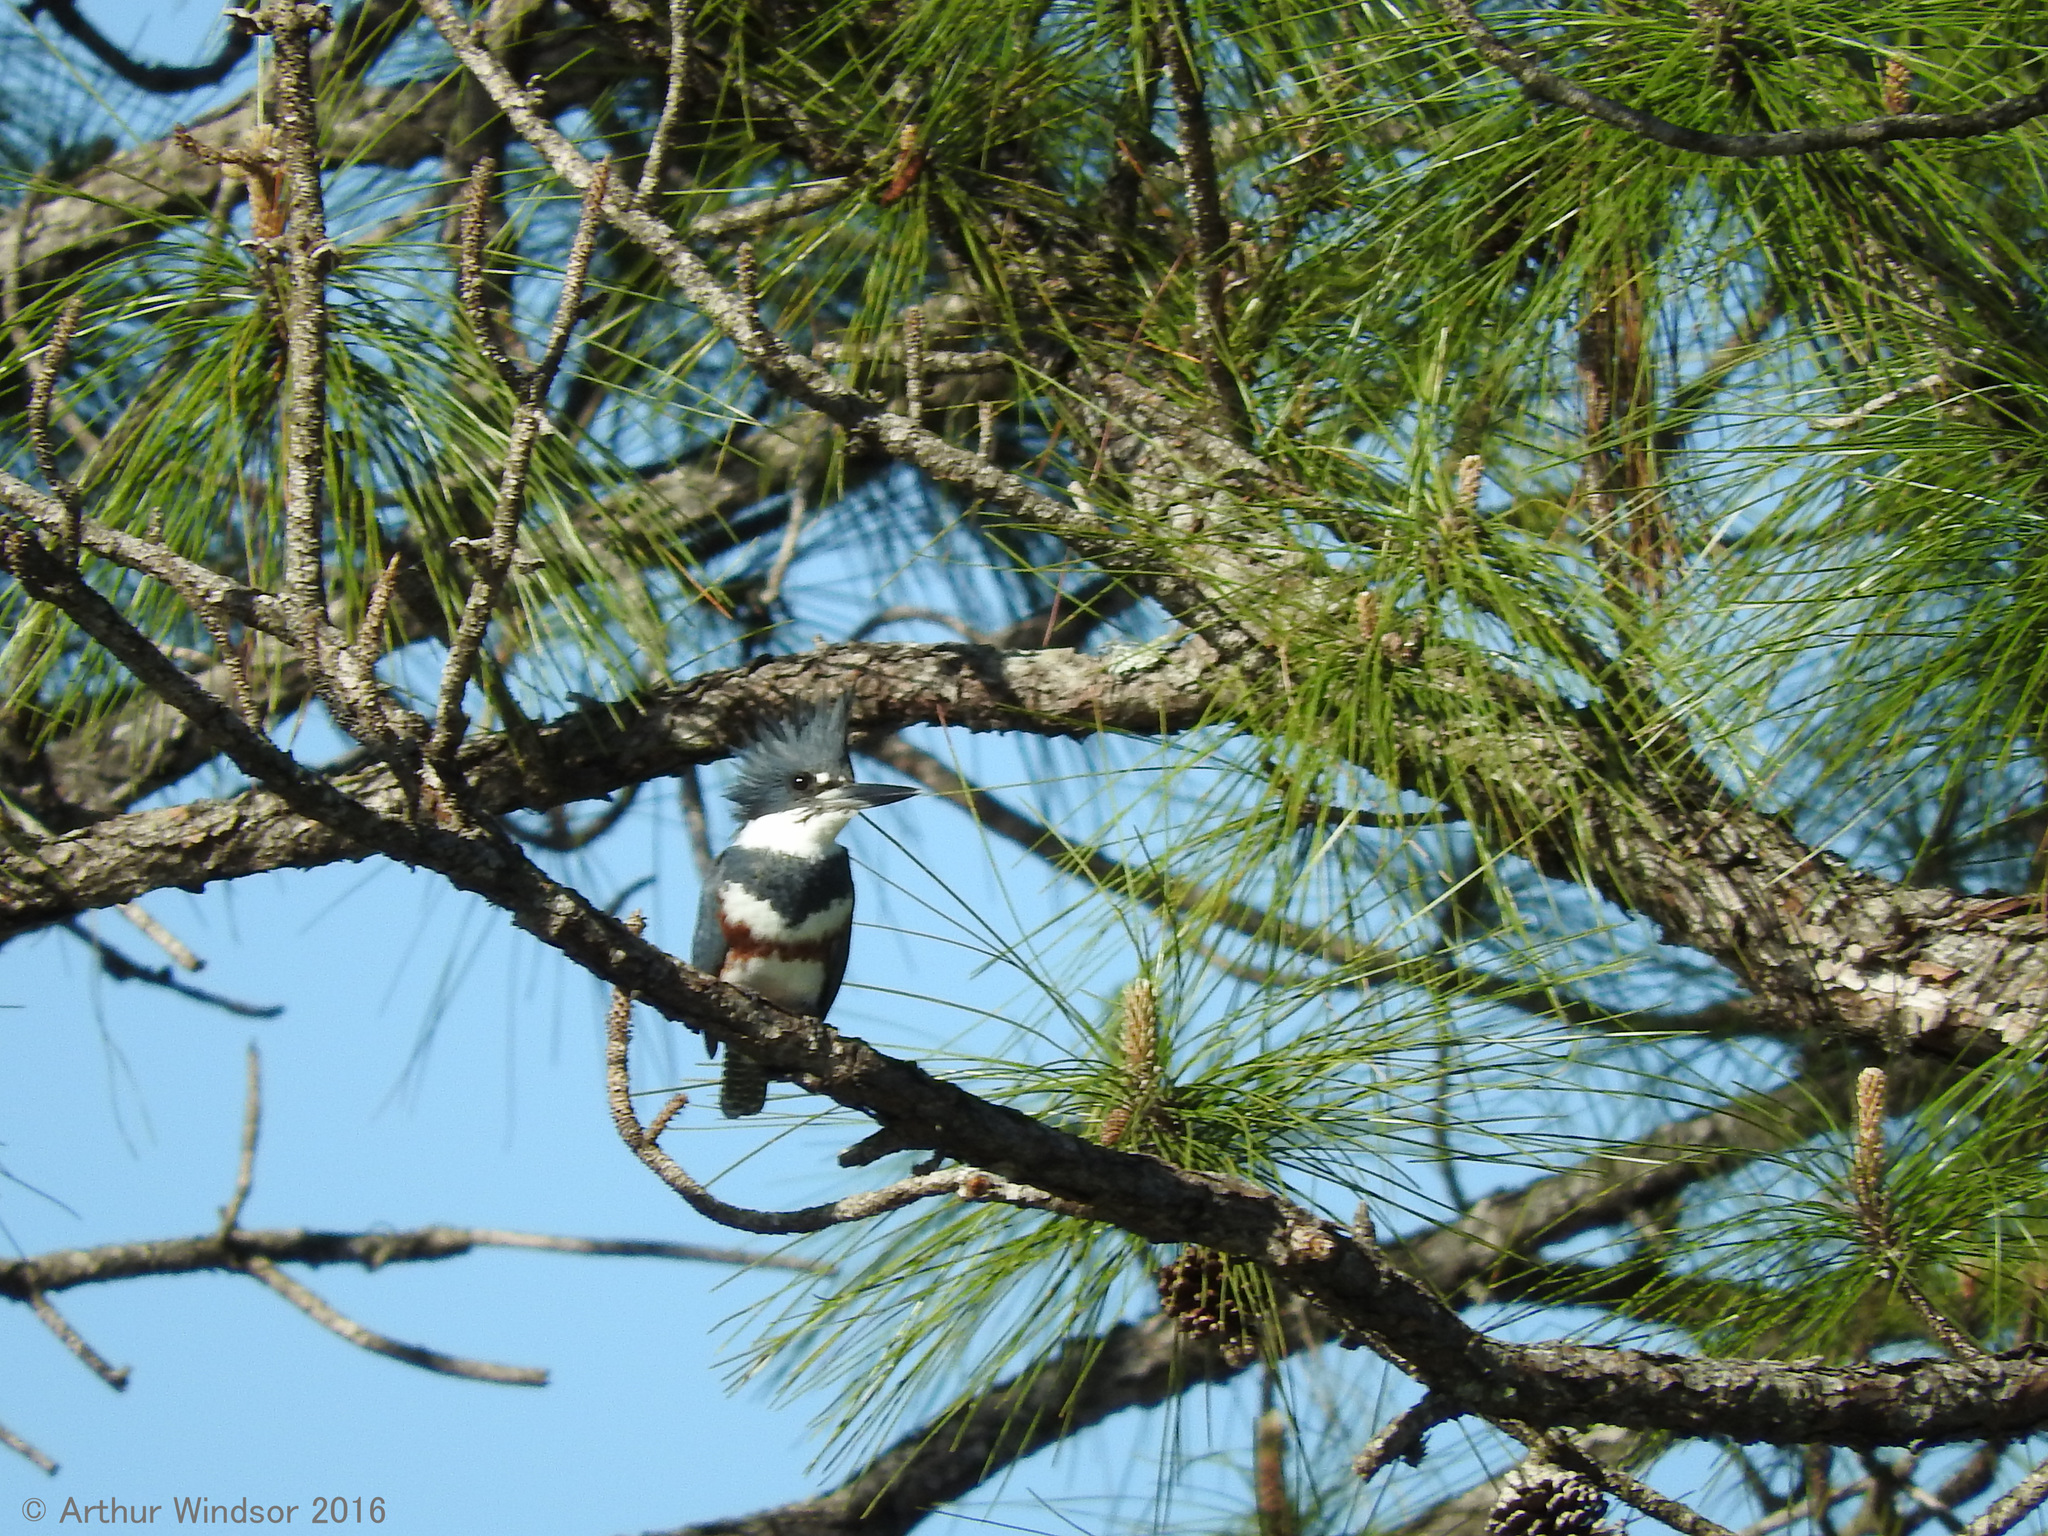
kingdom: Animalia
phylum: Chordata
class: Aves
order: Coraciiformes
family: Alcedinidae
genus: Megaceryle
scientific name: Megaceryle alcyon
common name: Belted kingfisher
